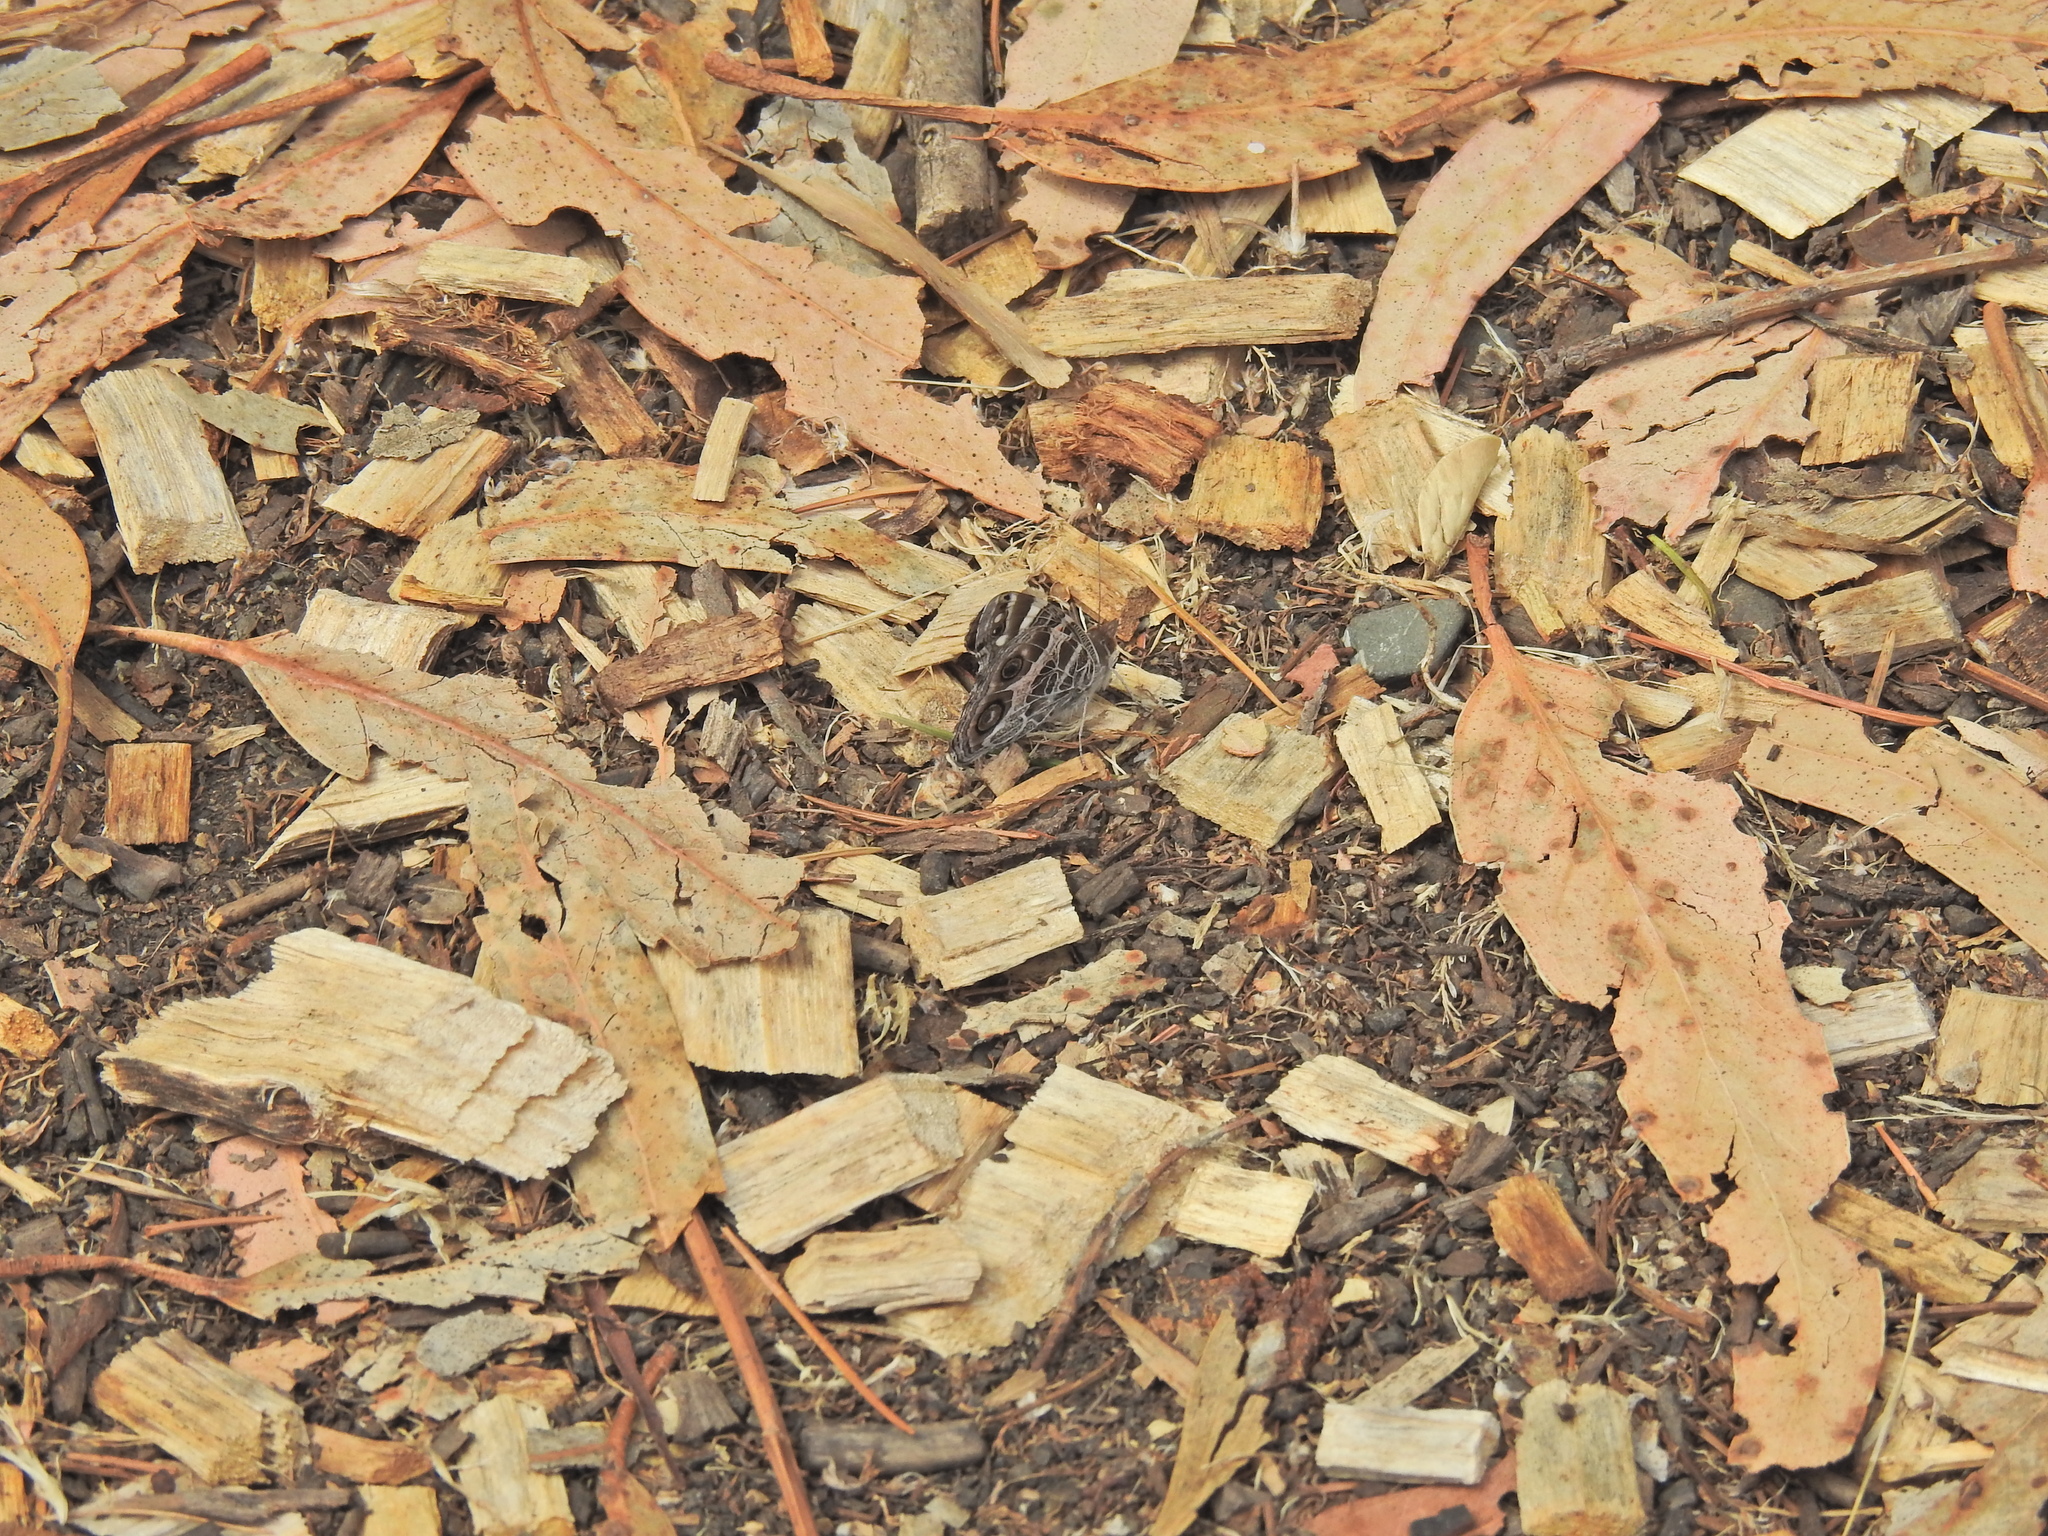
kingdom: Animalia
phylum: Arthropoda
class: Insecta
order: Lepidoptera
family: Nymphalidae
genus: Vanessa
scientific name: Vanessa virginiensis
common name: American lady
